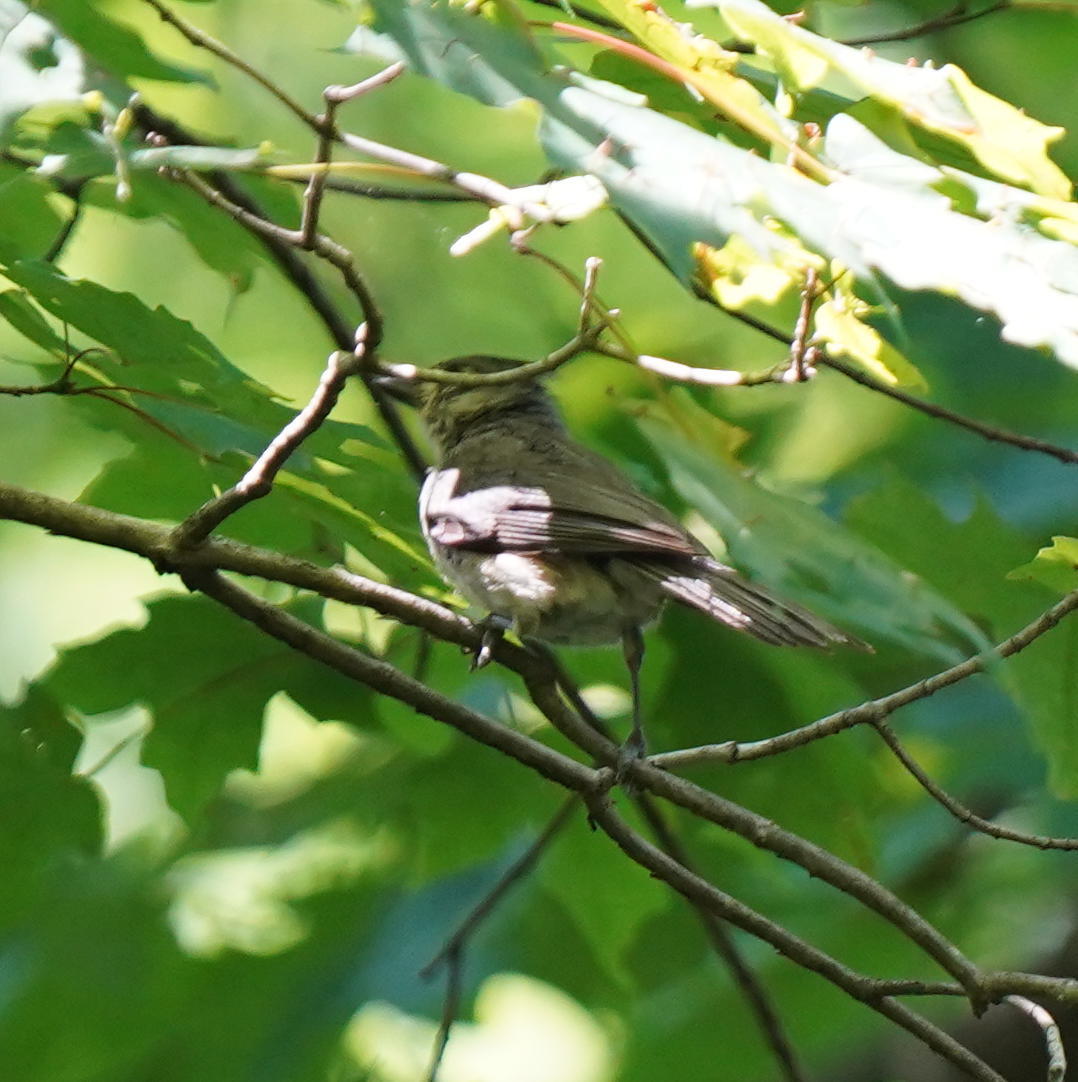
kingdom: Animalia
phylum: Chordata
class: Aves
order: Passeriformes
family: Paridae
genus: Baeolophus
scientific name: Baeolophus bicolor
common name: Tufted titmouse
